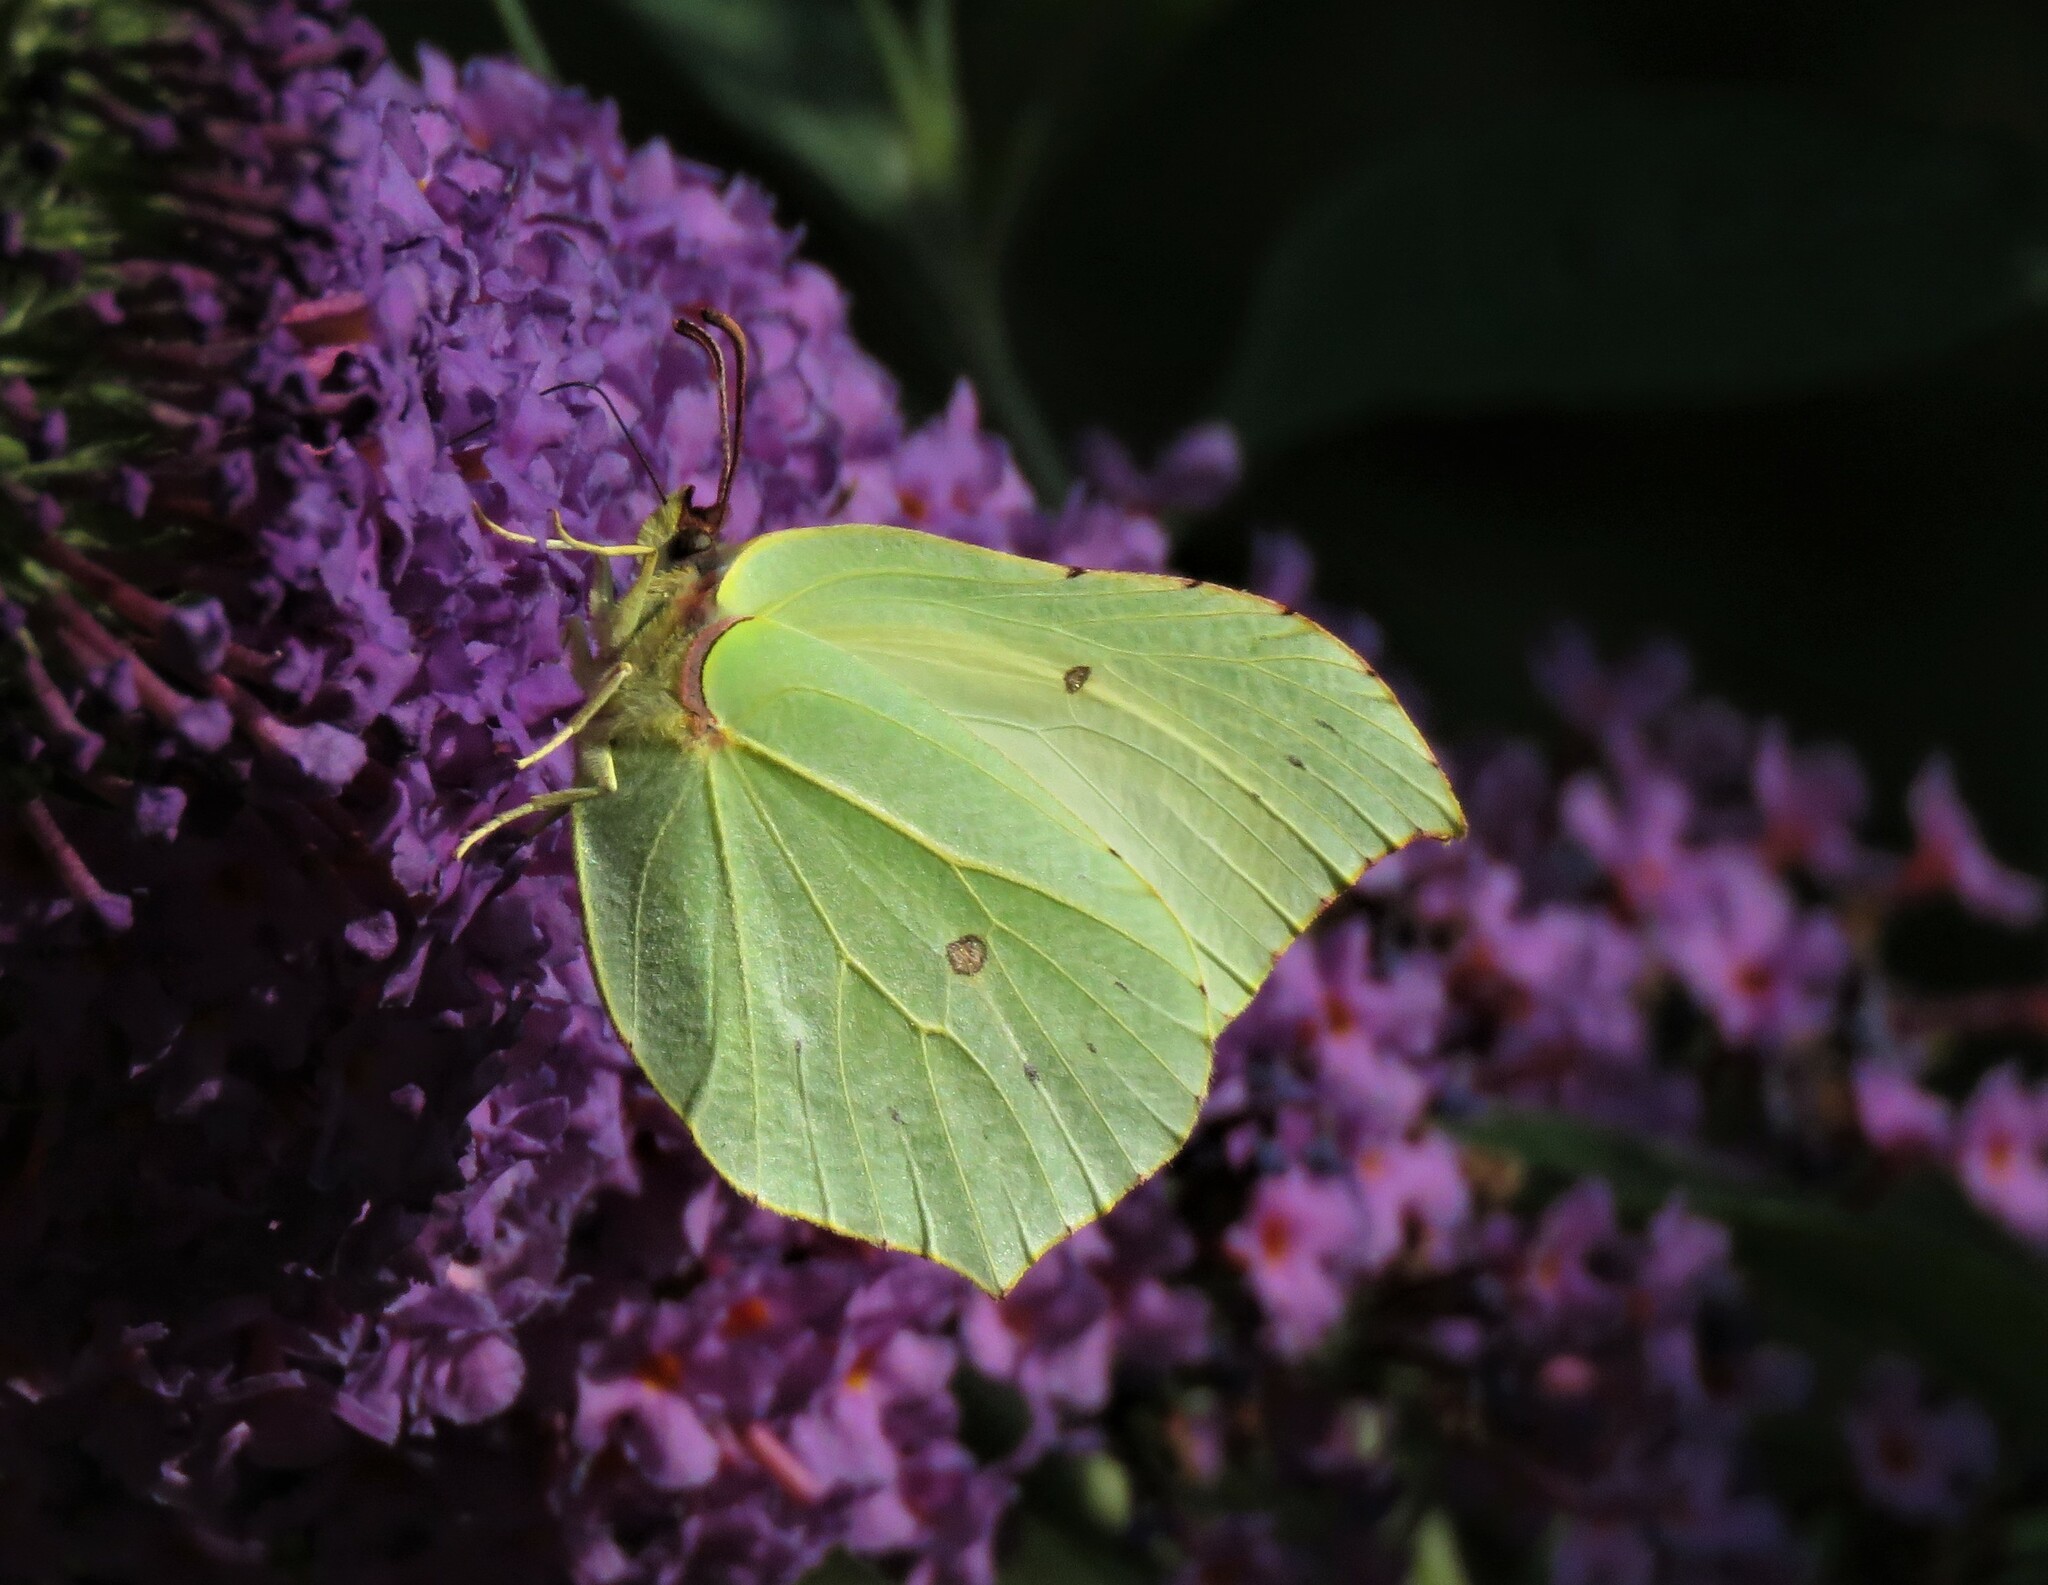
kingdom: Animalia
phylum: Arthropoda
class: Insecta
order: Lepidoptera
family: Pieridae
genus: Gonepteryx
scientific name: Gonepteryx rhamni
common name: Brimstone
